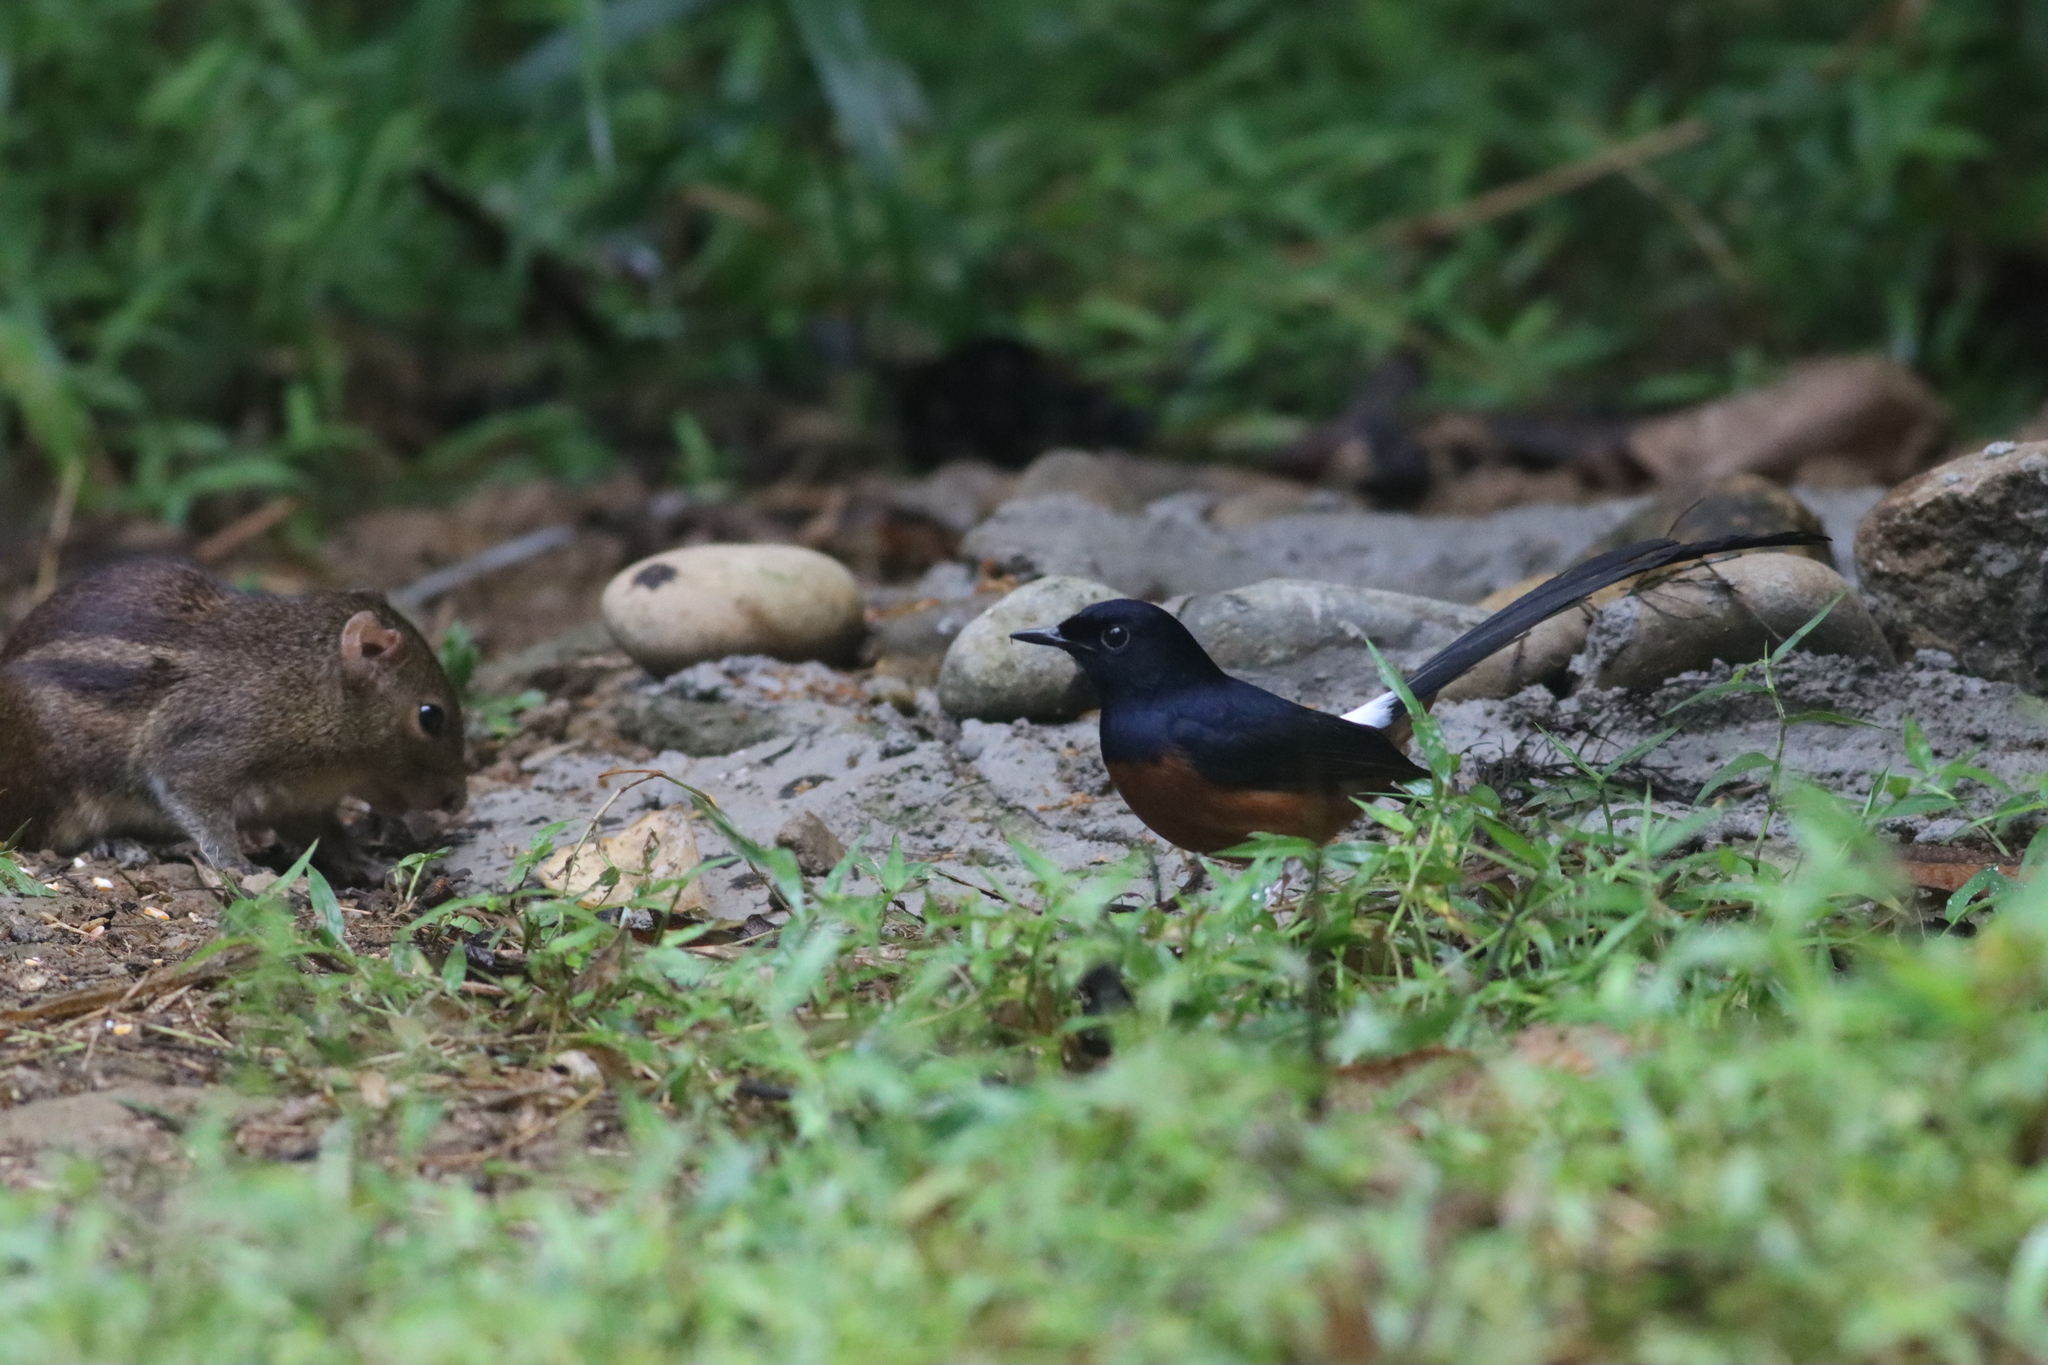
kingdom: Animalia
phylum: Chordata
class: Aves
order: Passeriformes
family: Muscicapidae
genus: Copsychus
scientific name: Copsychus malabaricus
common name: White-rumped shama
